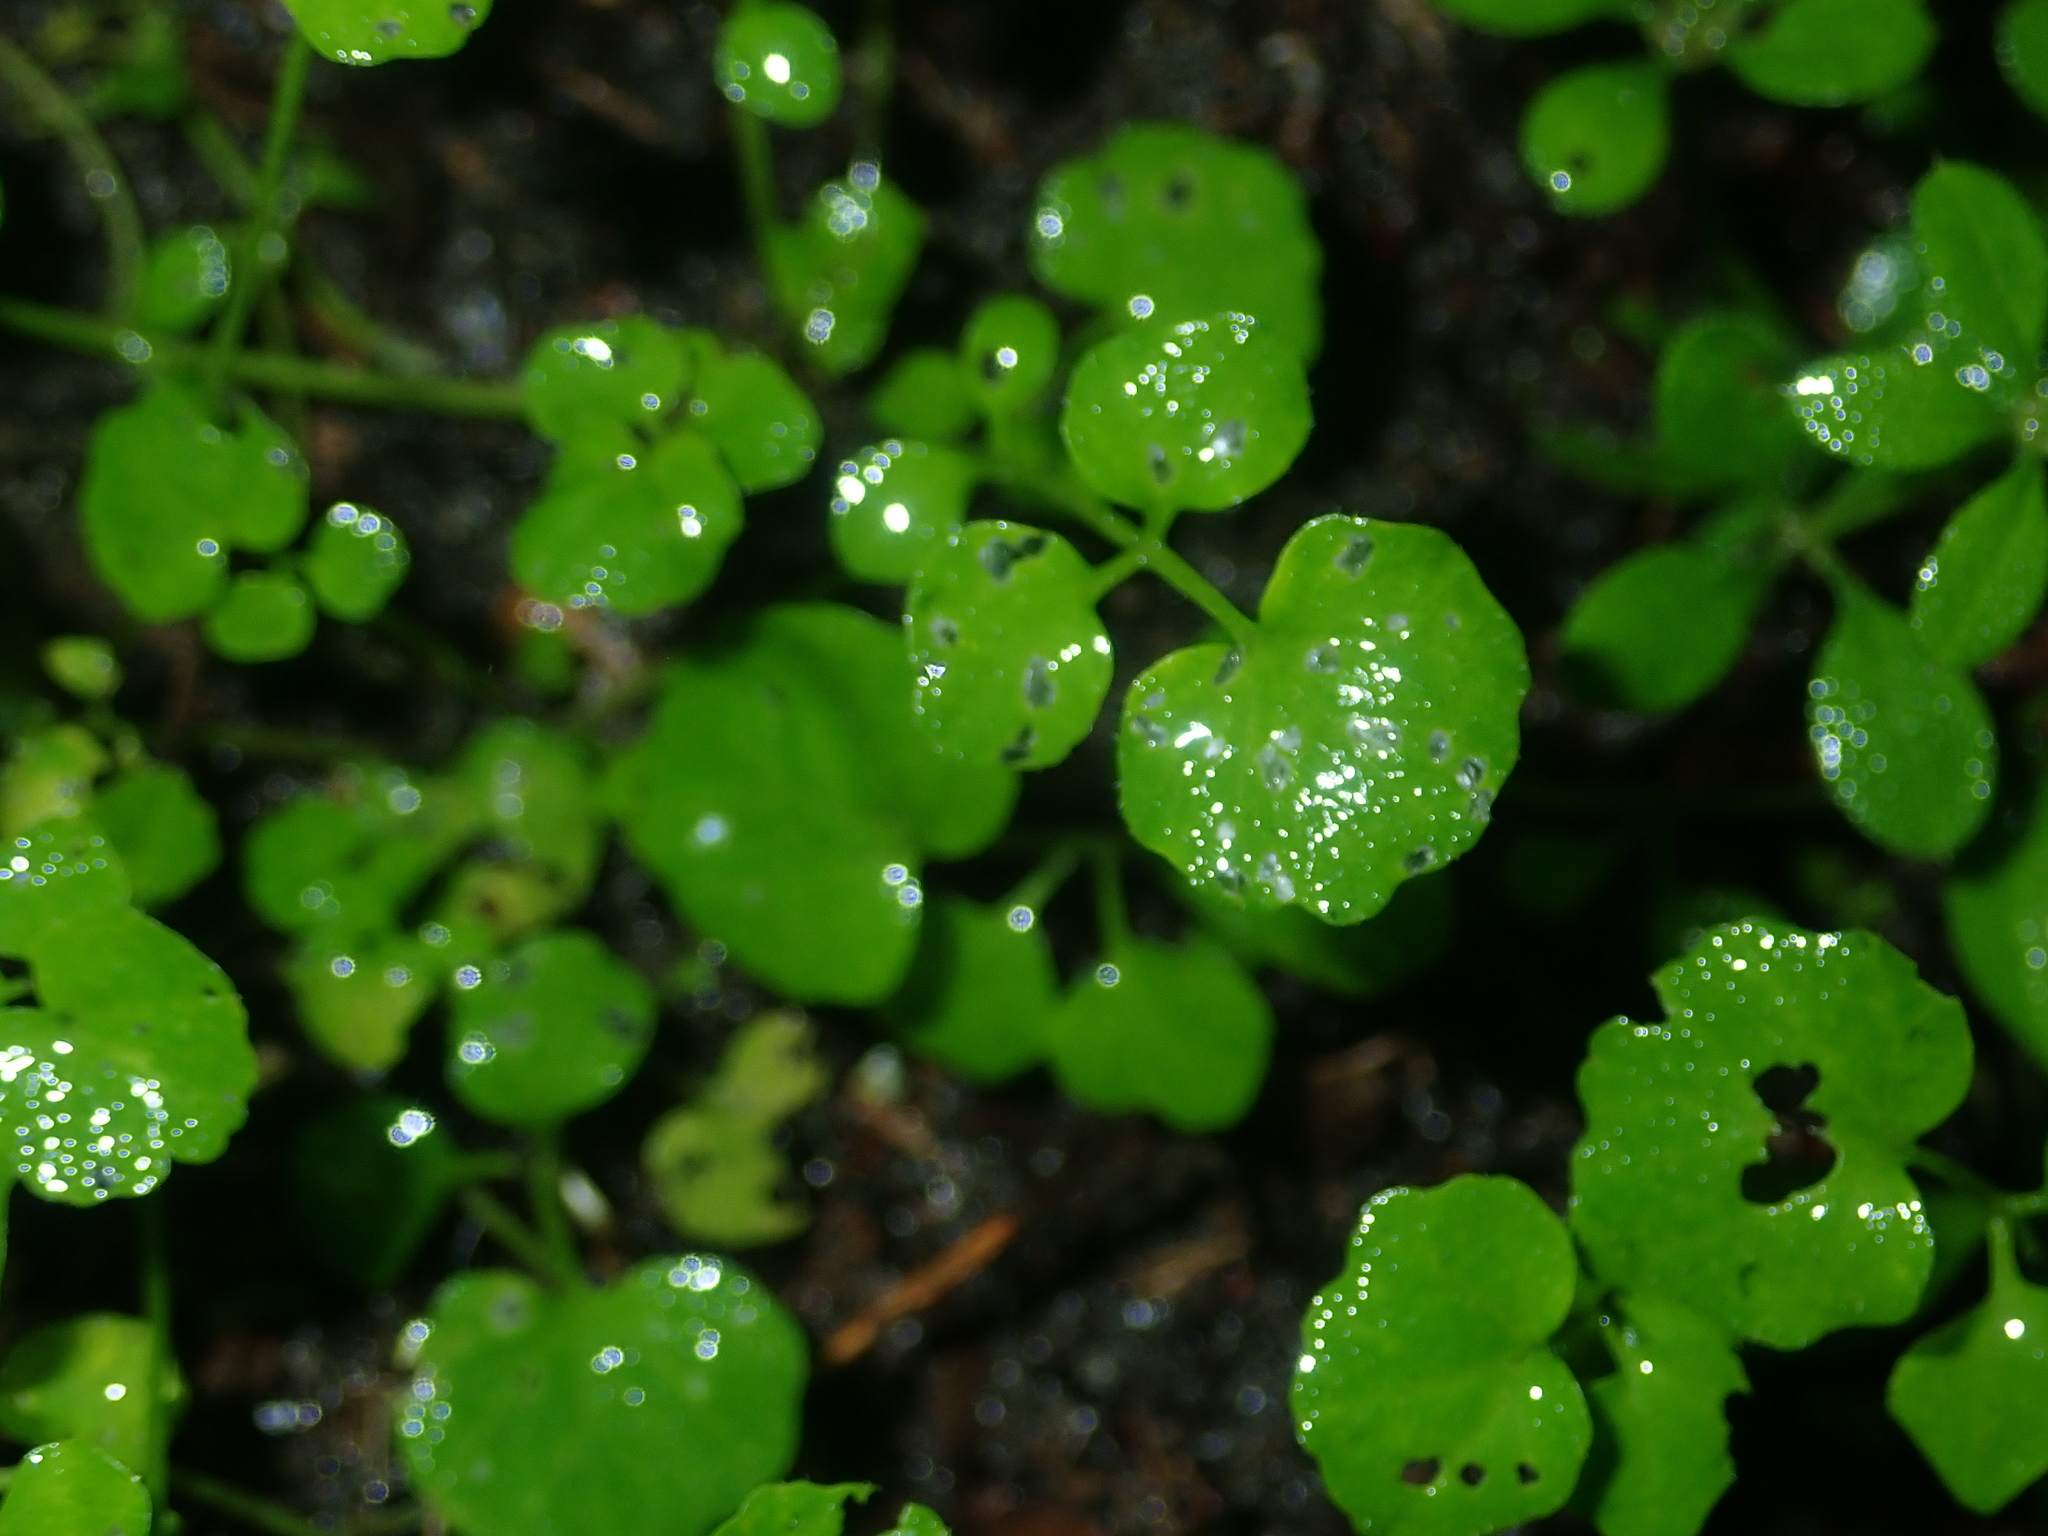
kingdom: Plantae
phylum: Tracheophyta
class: Magnoliopsida
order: Brassicales
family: Brassicaceae
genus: Cardamine
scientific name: Cardamine hirsuta
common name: Hairy bittercress
